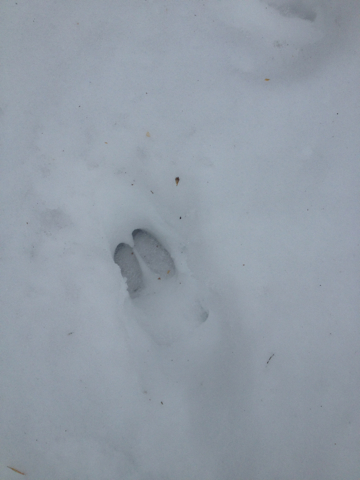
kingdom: Animalia
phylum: Chordata
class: Mammalia
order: Artiodactyla
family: Cervidae
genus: Odocoileus
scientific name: Odocoileus virginianus
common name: White-tailed deer
